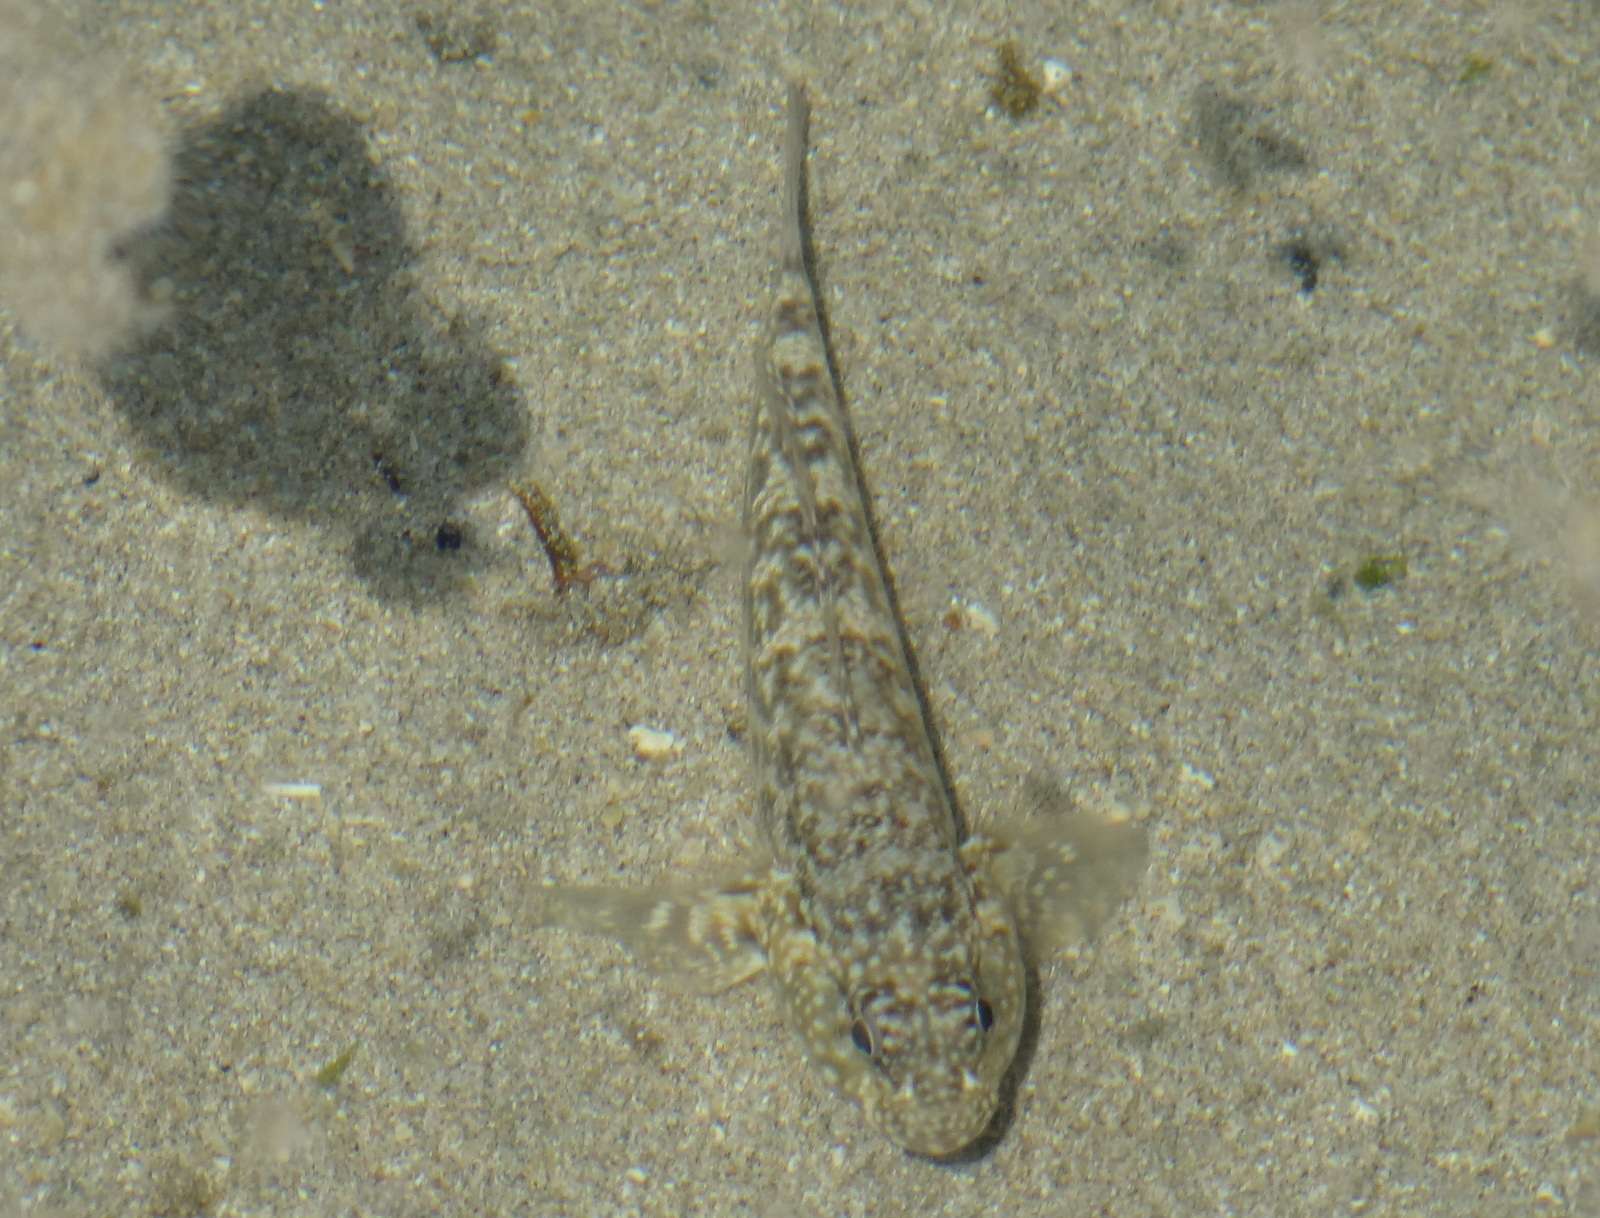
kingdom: Animalia
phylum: Chordata
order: Perciformes
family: Gobiidae
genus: Bathygobius
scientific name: Bathygobius lineatus
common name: Southern frillfin
